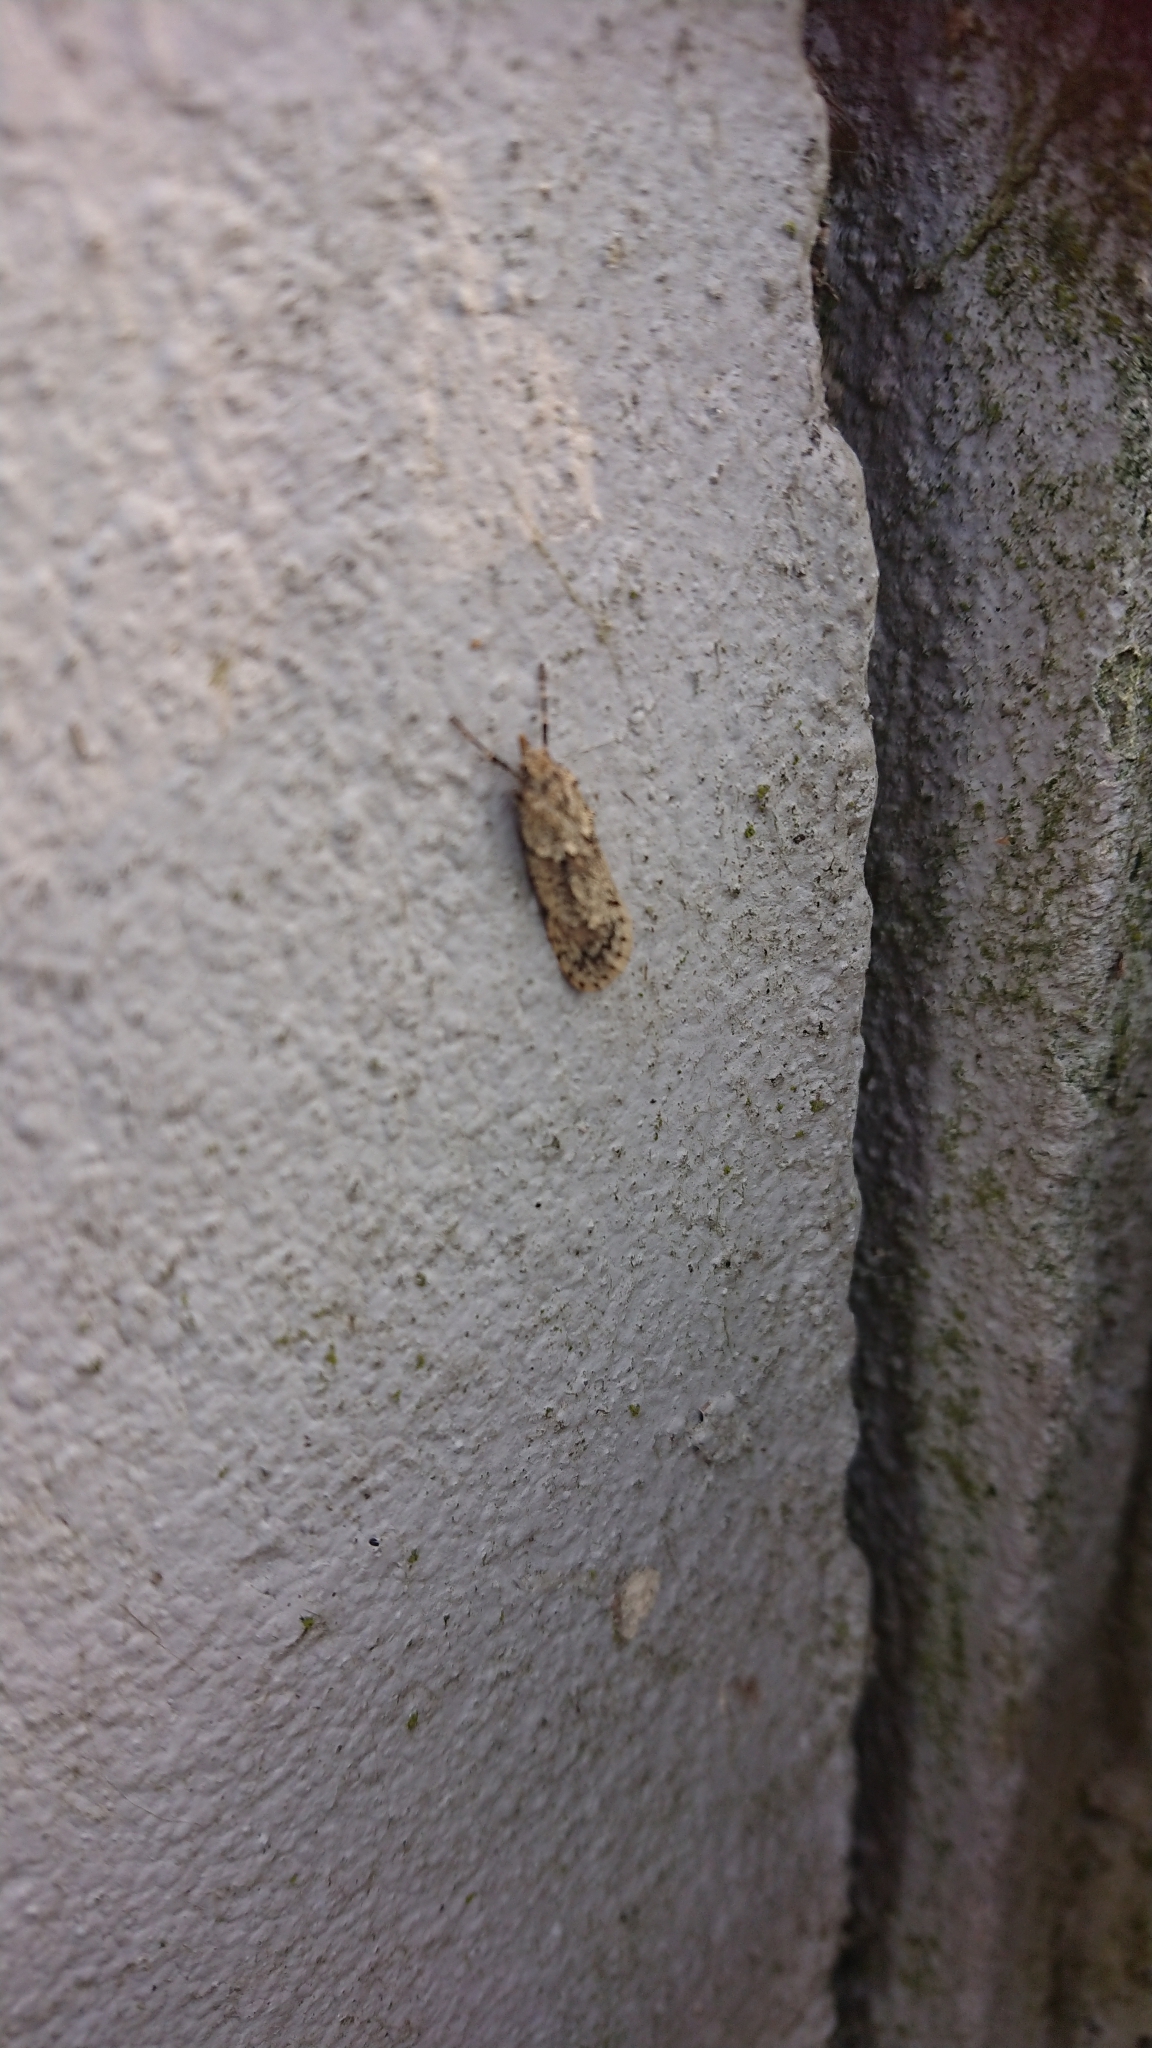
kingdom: Animalia
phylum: Arthropoda
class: Insecta
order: Lepidoptera
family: Lypusidae
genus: Diurnea
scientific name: Diurnea fagella
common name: March tubic
